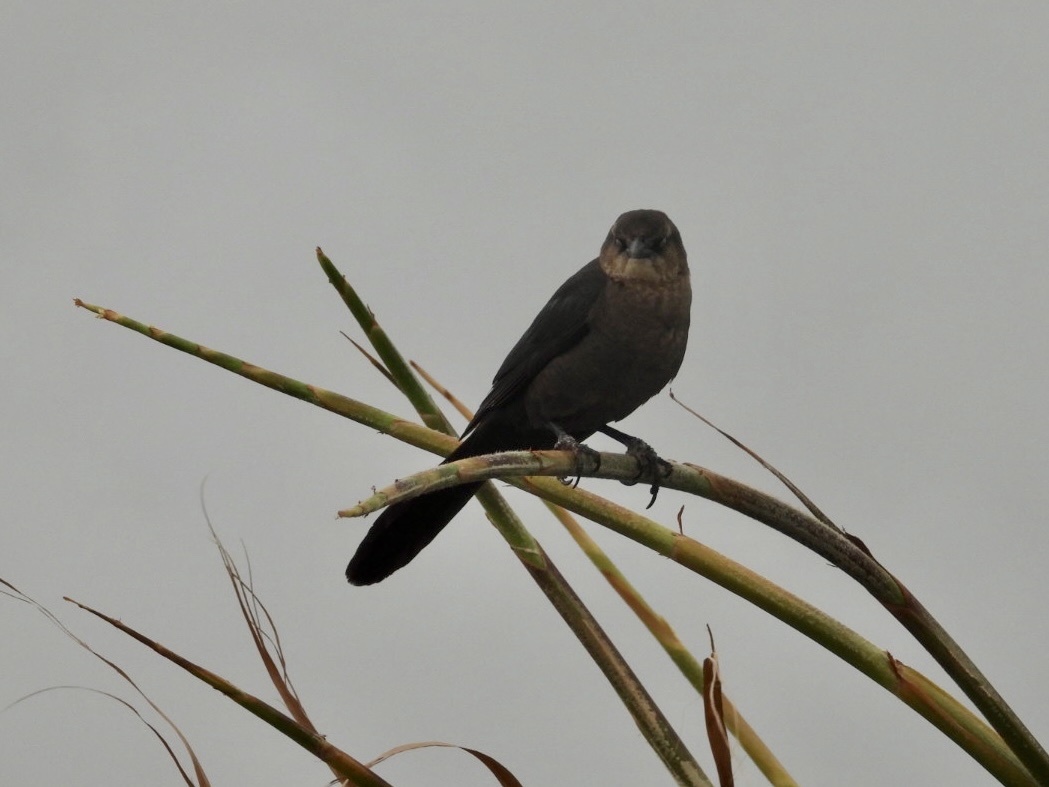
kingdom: Animalia
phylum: Chordata
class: Aves
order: Passeriformes
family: Icteridae
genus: Quiscalus
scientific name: Quiscalus mexicanus
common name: Great-tailed grackle
